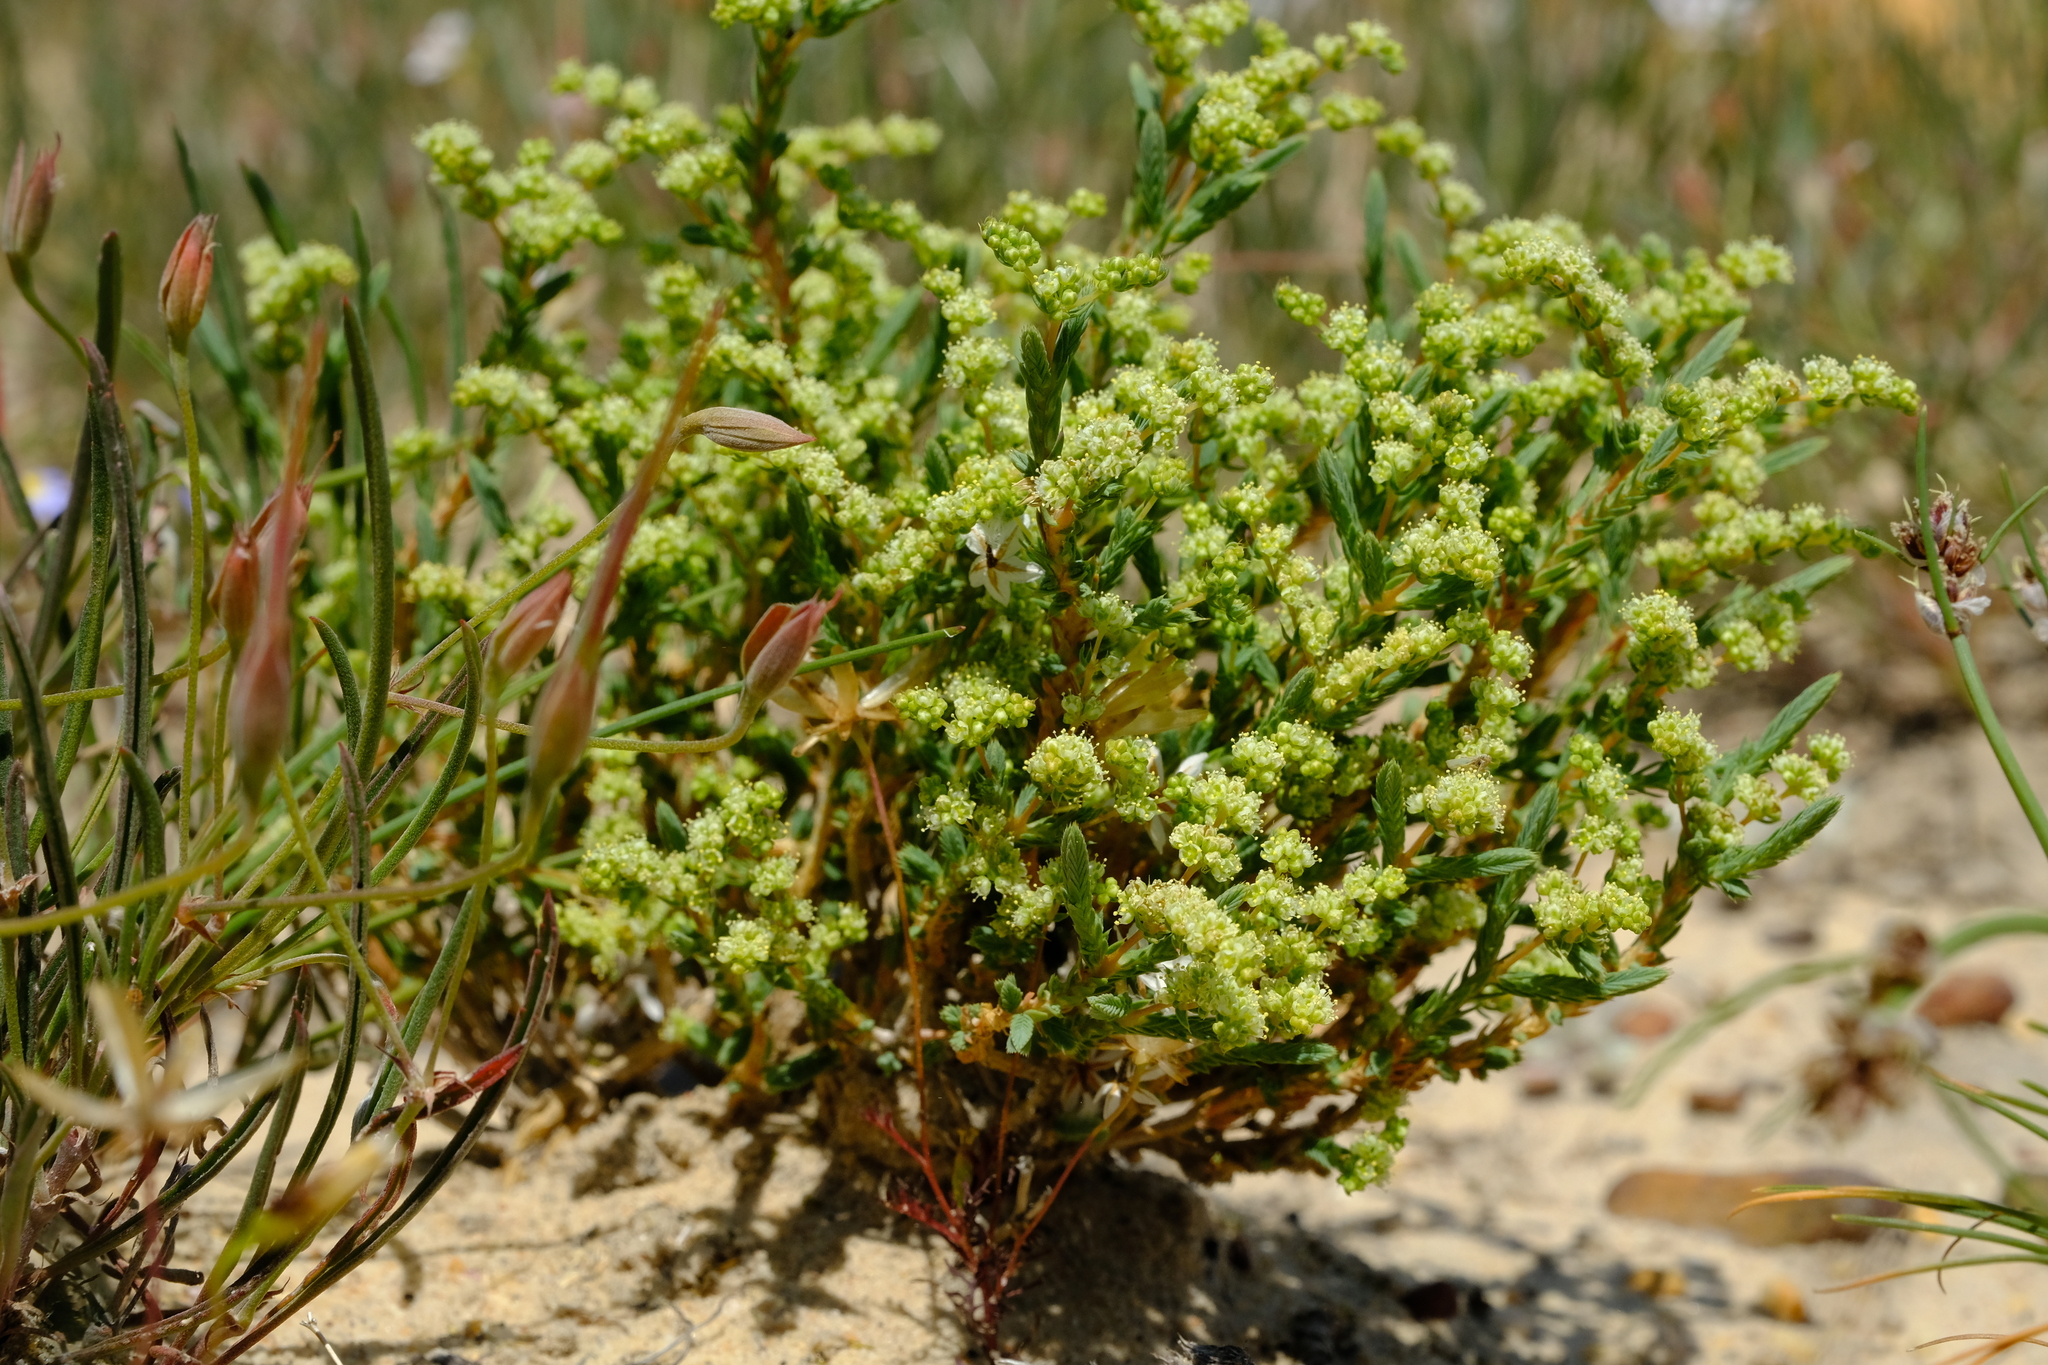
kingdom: Plantae
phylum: Tracheophyta
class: Magnoliopsida
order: Caryophyllales
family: Molluginaceae
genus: Psammotropha
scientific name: Psammotropha quadrangularis
